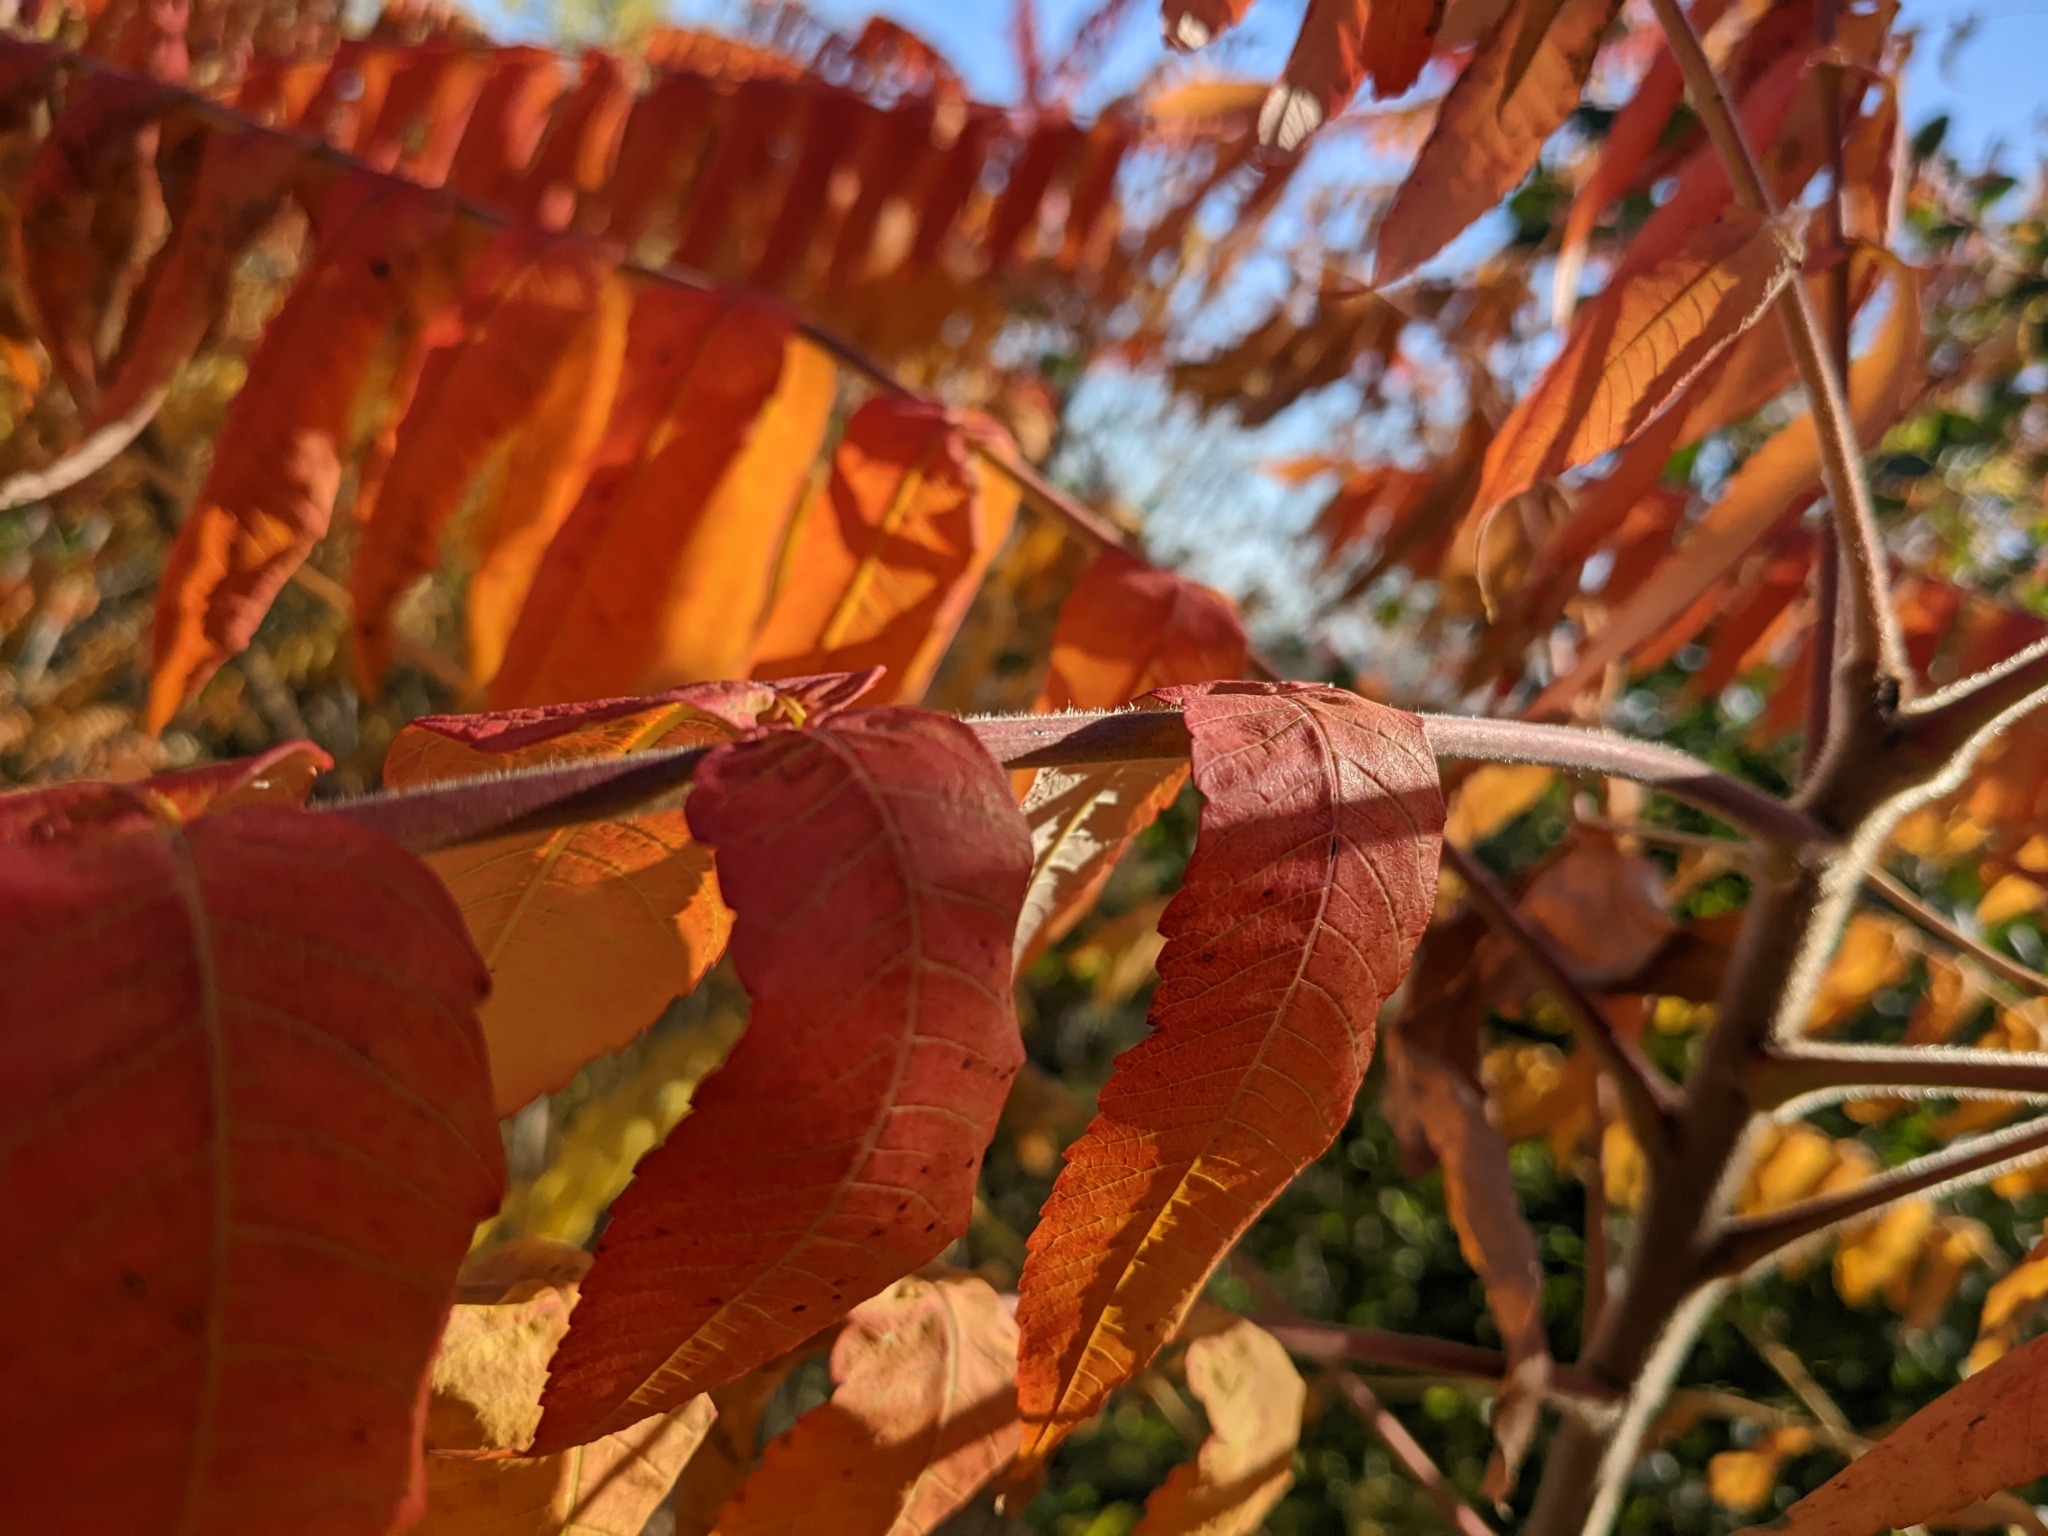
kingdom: Plantae
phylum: Tracheophyta
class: Magnoliopsida
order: Sapindales
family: Anacardiaceae
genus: Rhus
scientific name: Rhus typhina
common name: Staghorn sumac
